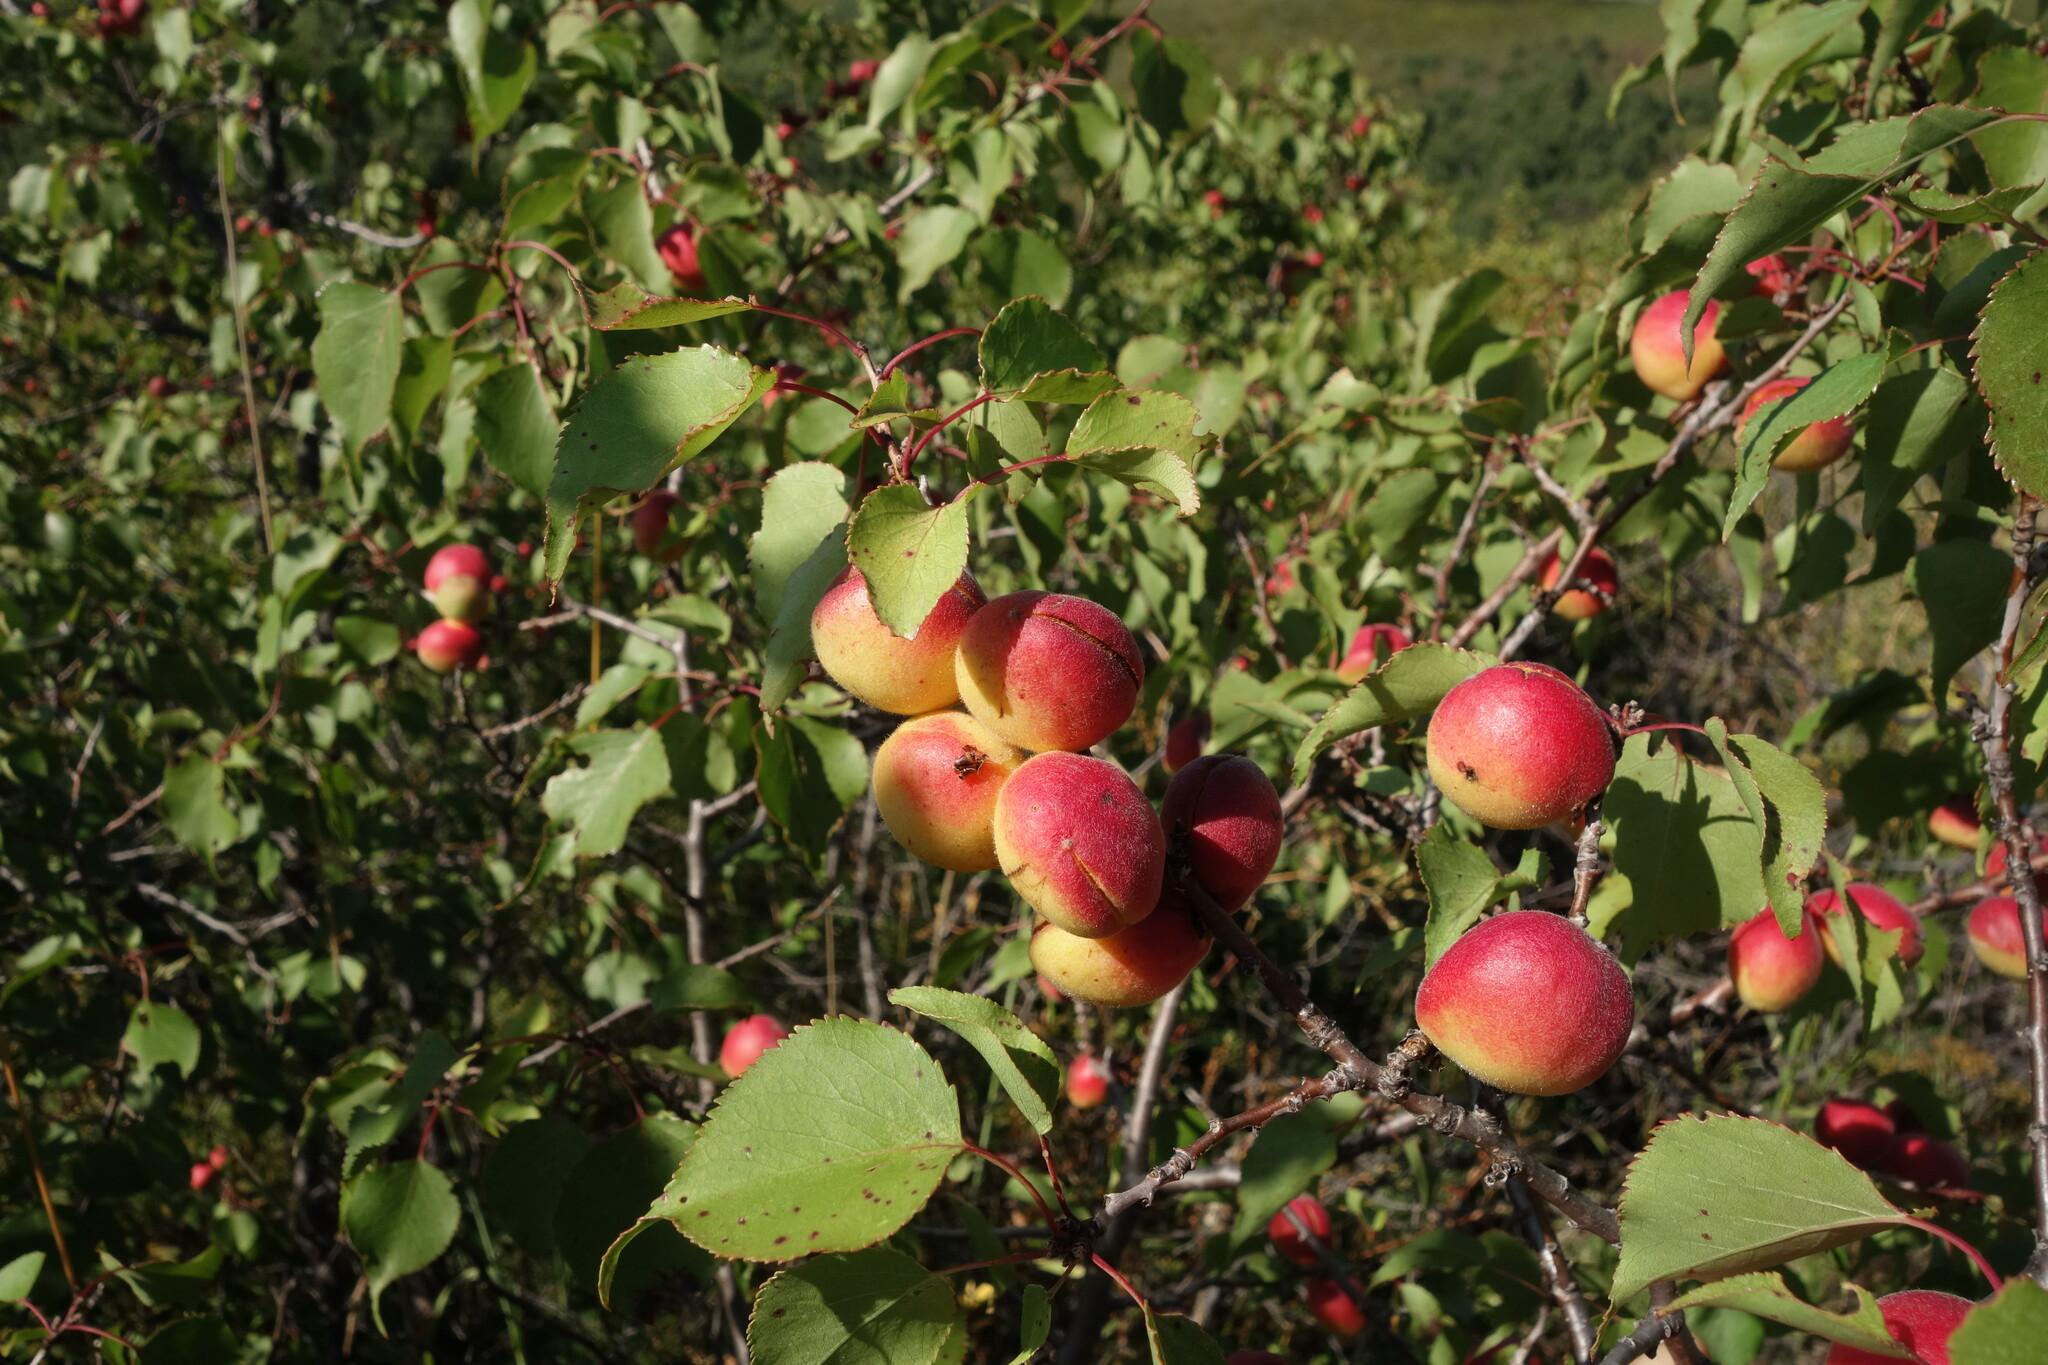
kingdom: Plantae
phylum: Tracheophyta
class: Magnoliopsida
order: Rosales
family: Rosaceae
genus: Prunus
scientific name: Prunus sibirica
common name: Siberian apricot
